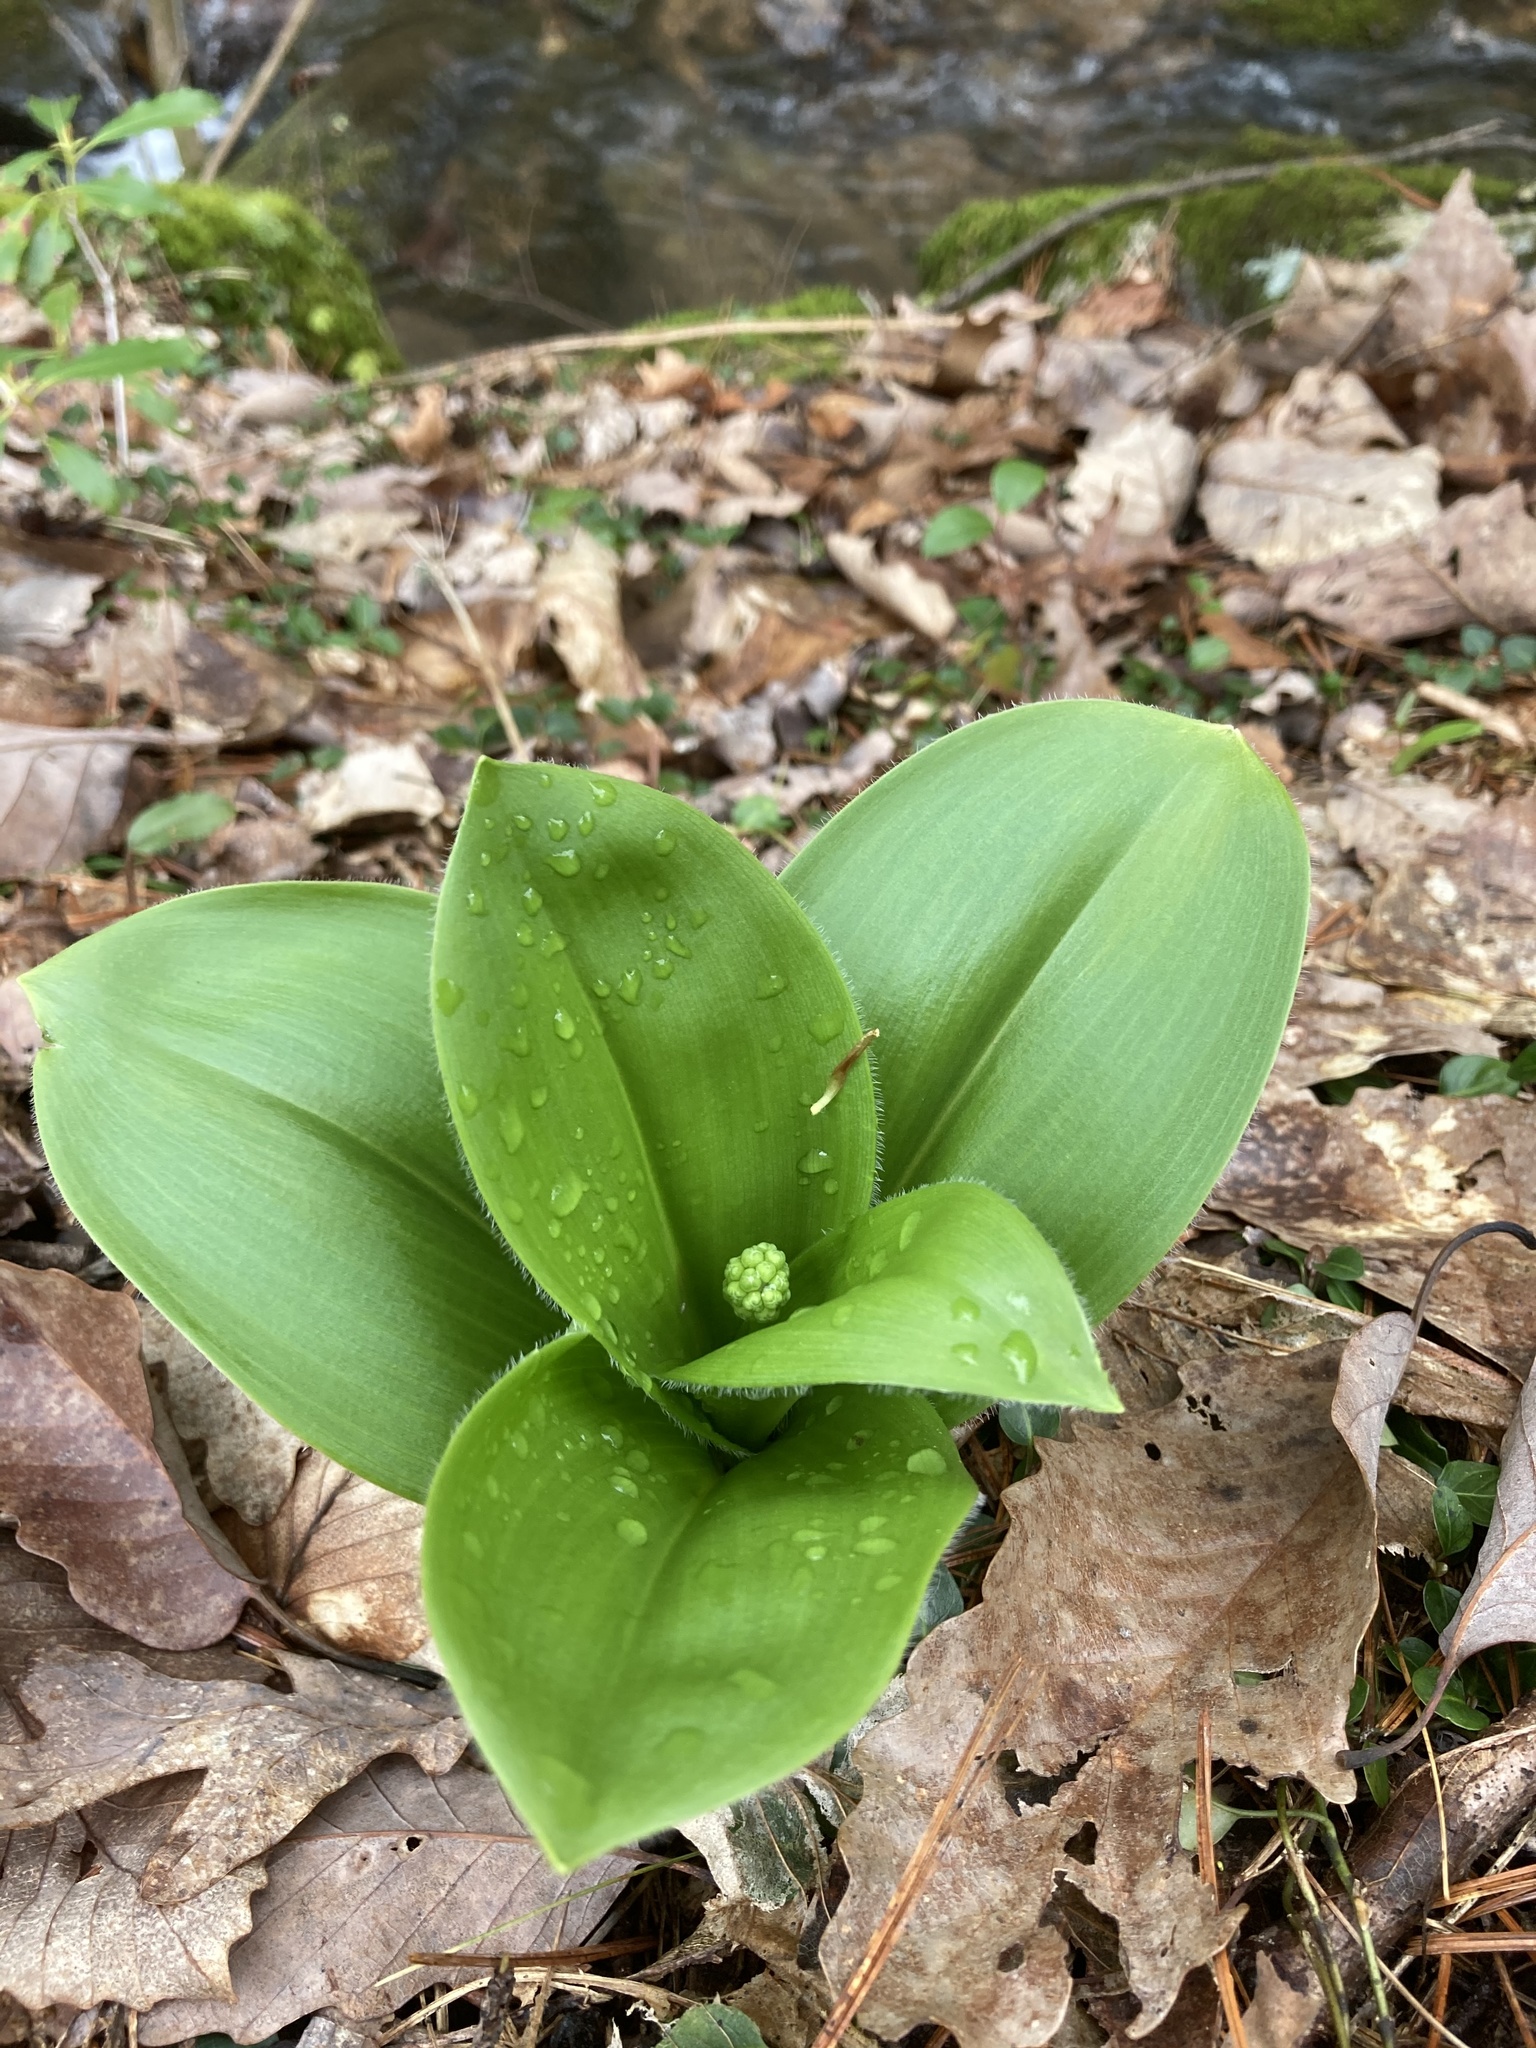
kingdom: Plantae
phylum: Tracheophyta
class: Liliopsida
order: Liliales
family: Liliaceae
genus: Clintonia
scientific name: Clintonia umbellulata
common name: Speckle wood-lily
